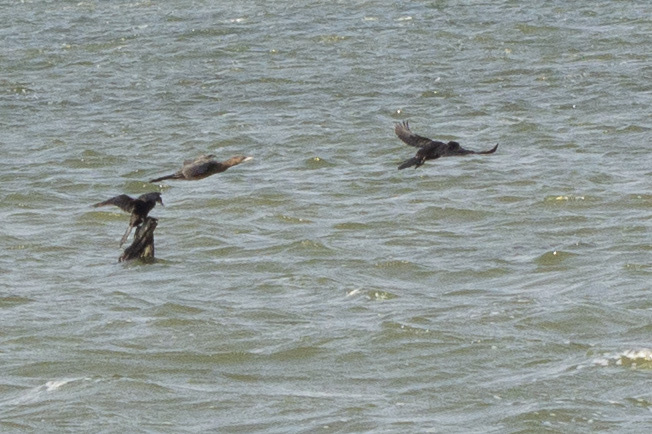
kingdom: Animalia
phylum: Chordata
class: Aves
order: Suliformes
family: Phalacrocoracidae
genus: Microcarbo
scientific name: Microcarbo pygmaeus
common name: Pygmy cormorant
